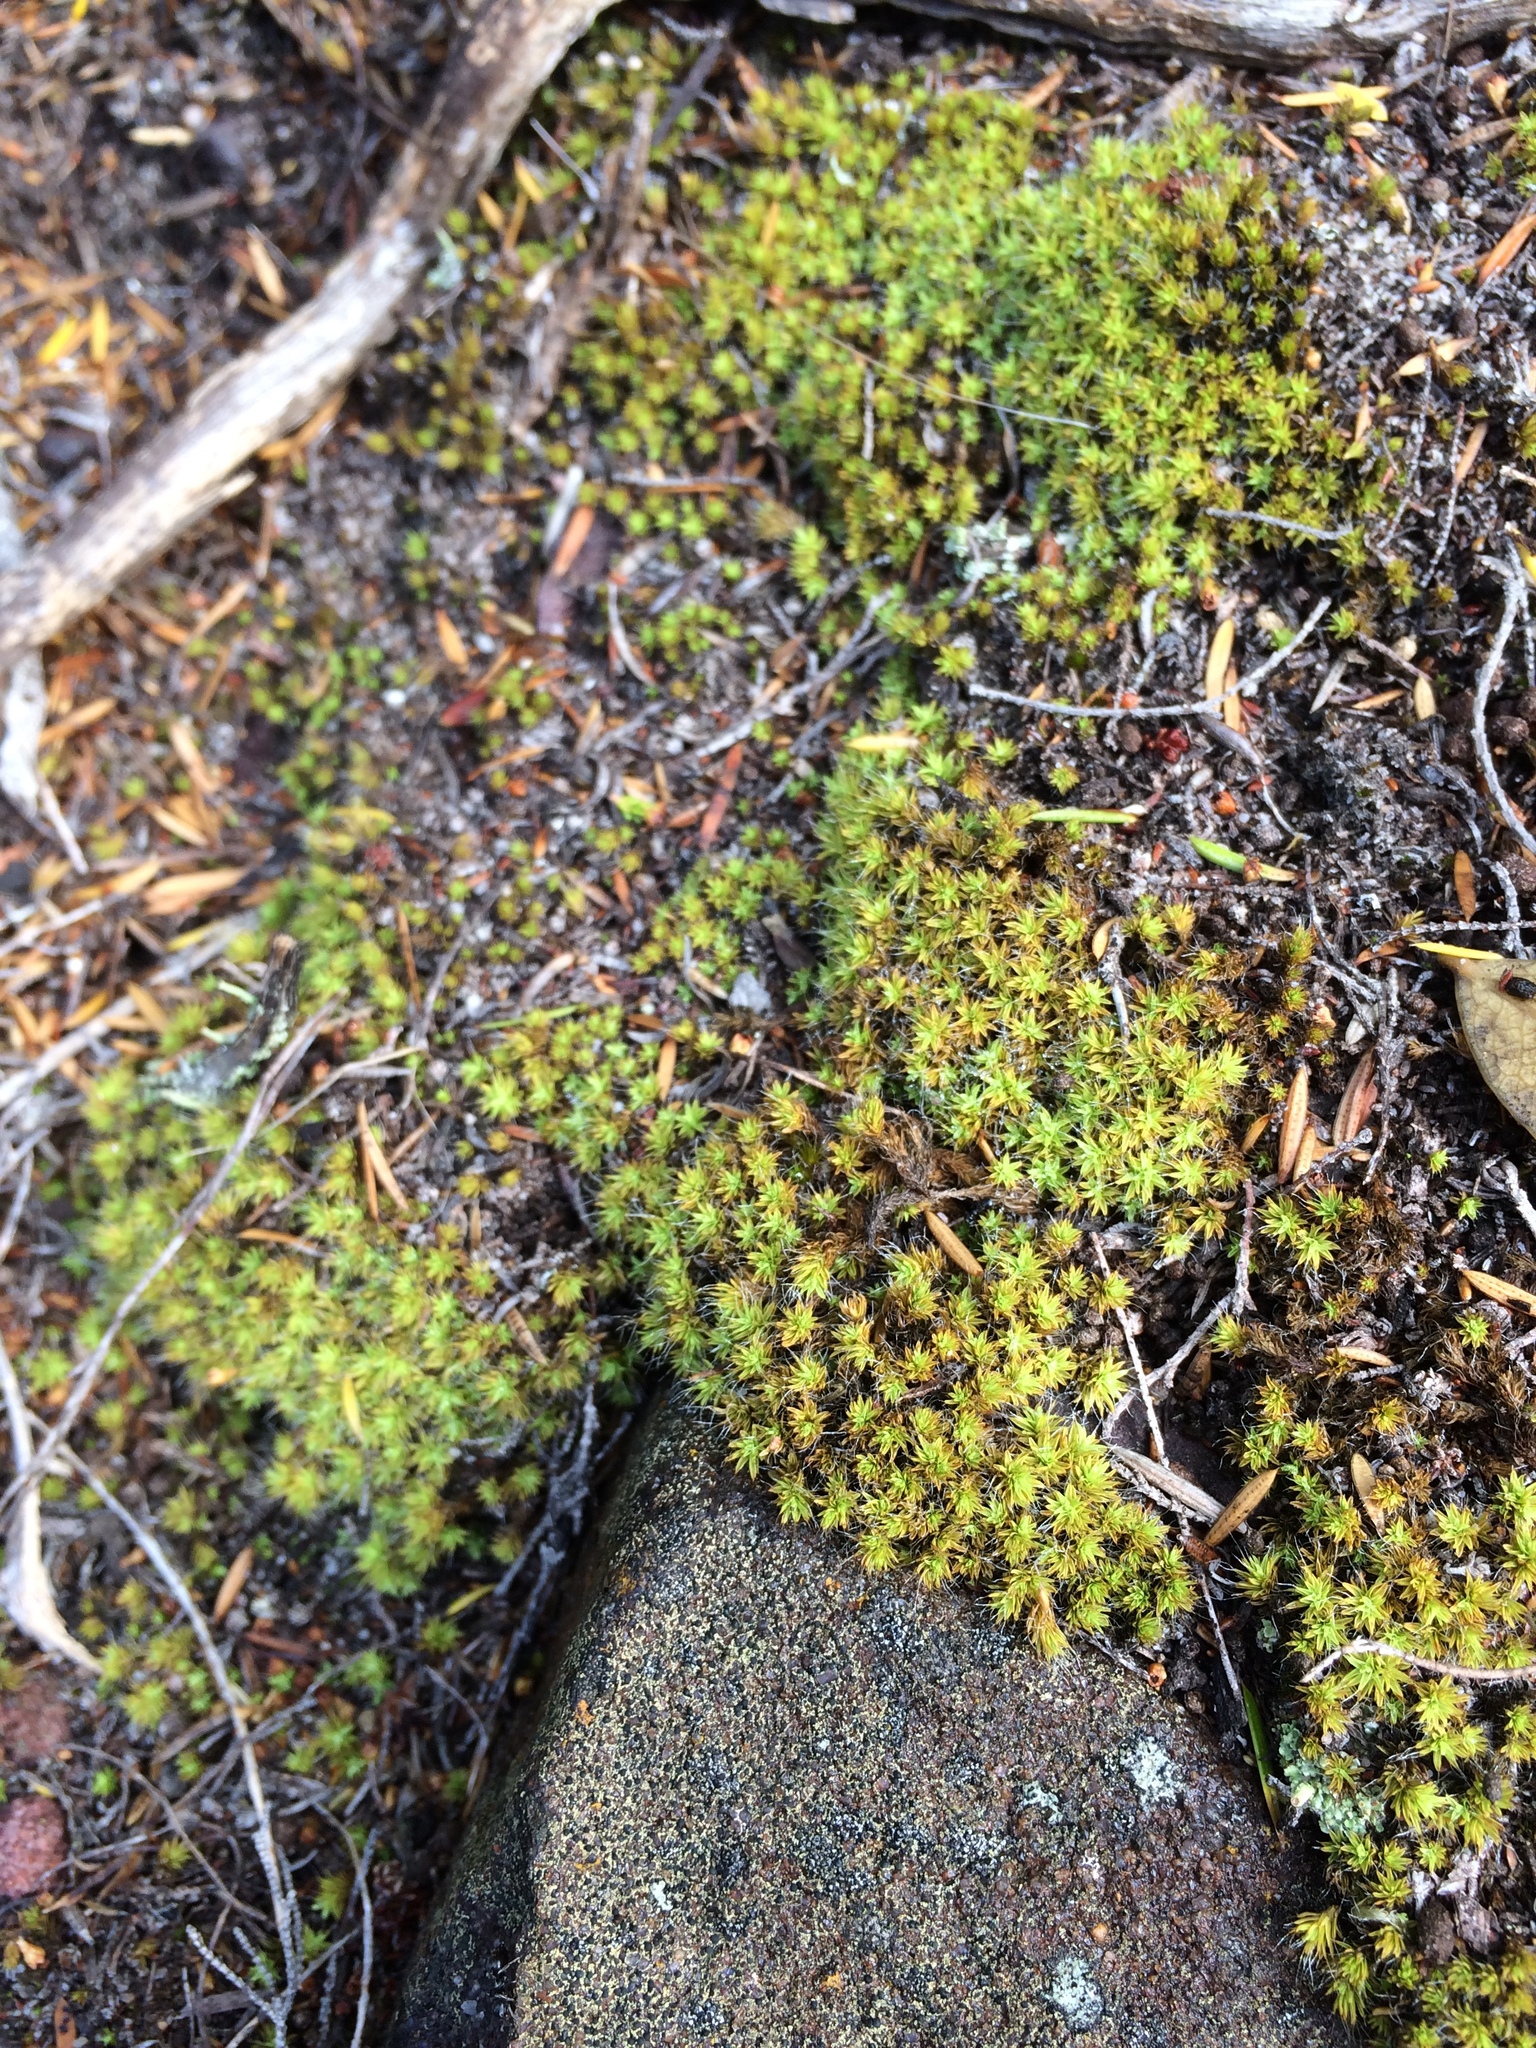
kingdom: Plantae
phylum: Bryophyta
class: Bryopsida
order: Pottiales
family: Pottiaceae
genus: Pseudocrossidium
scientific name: Pseudocrossidium crinitum
